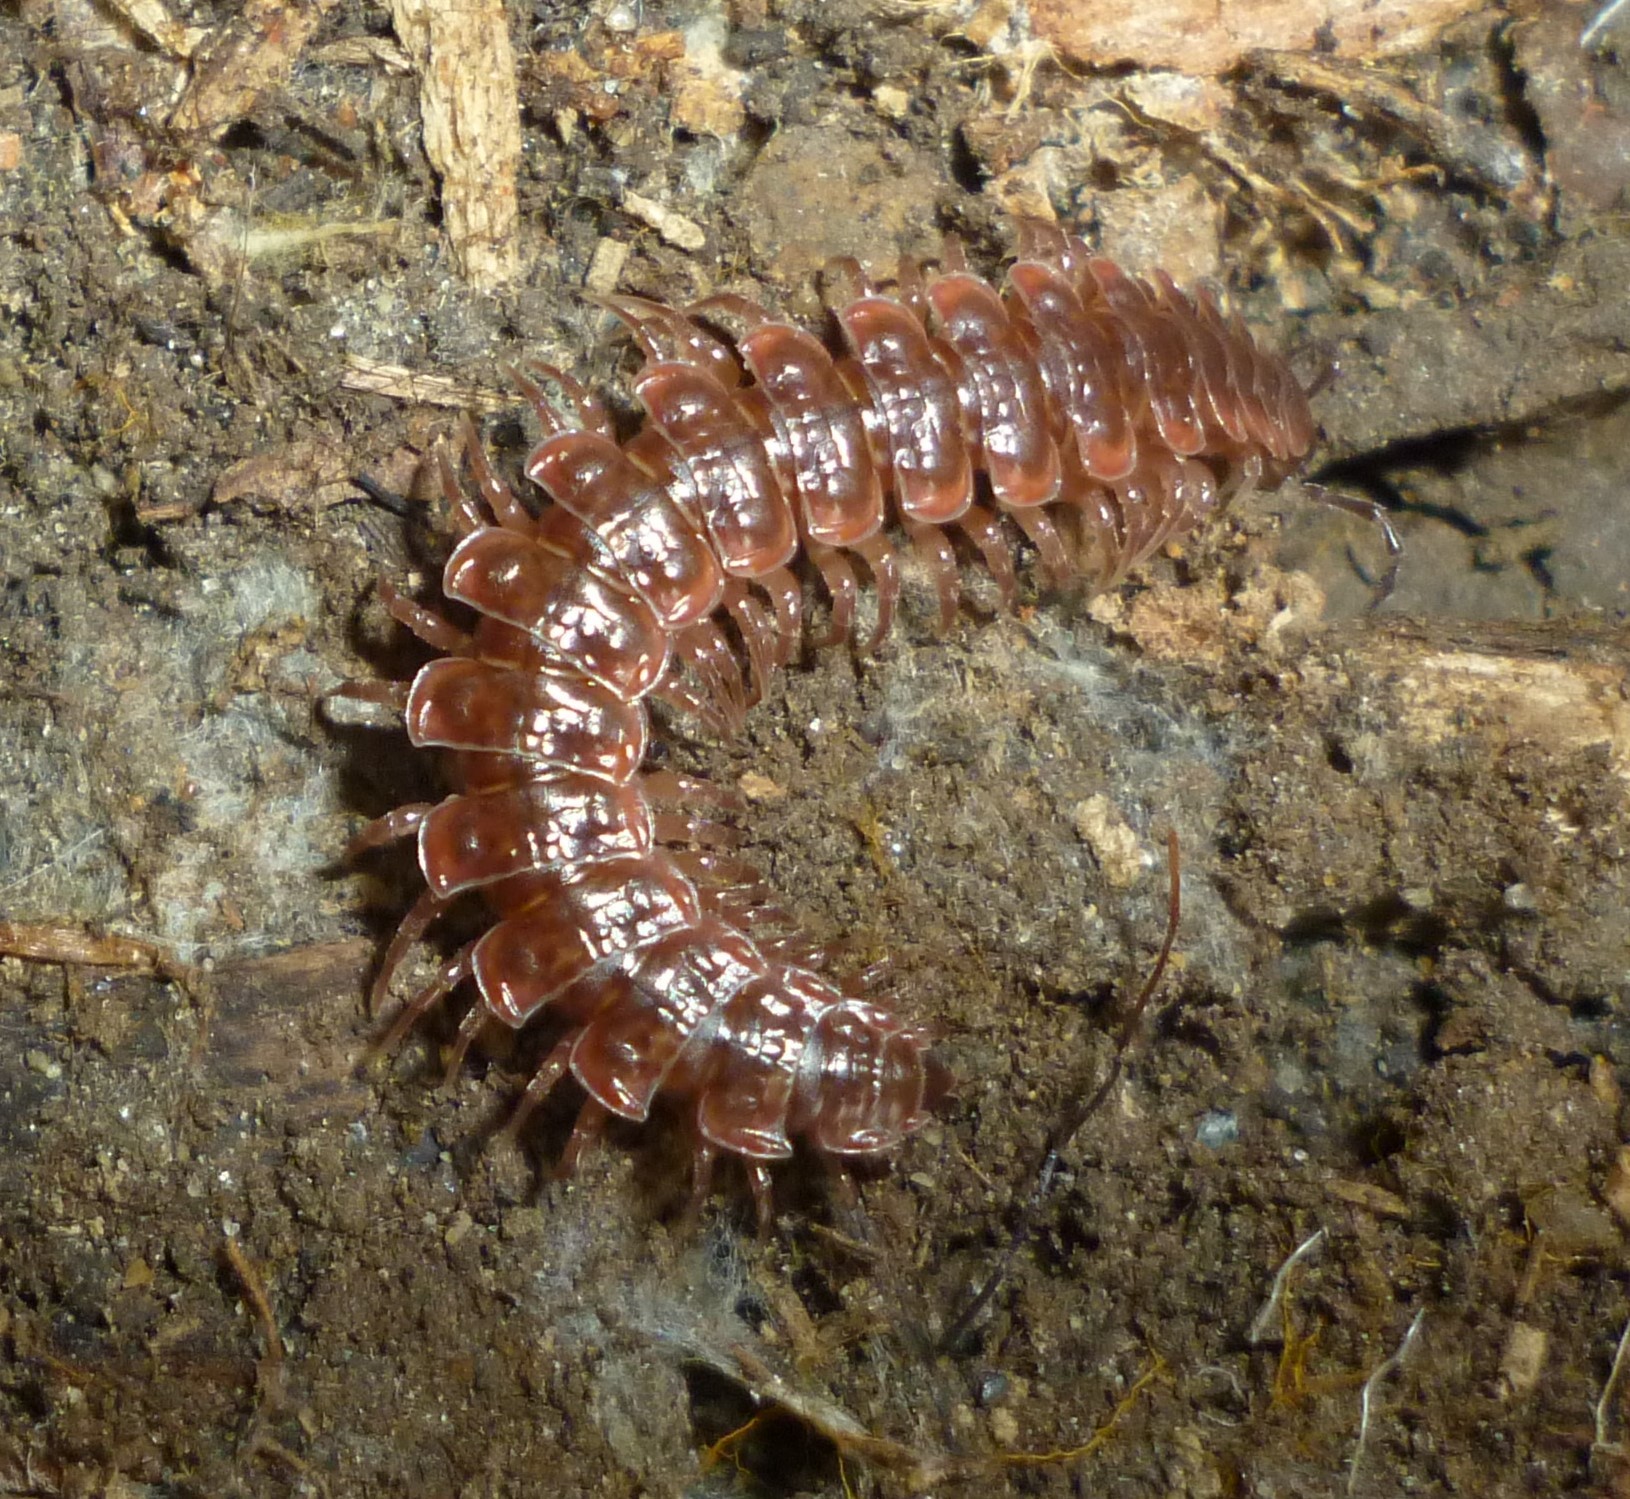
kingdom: Animalia
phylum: Arthropoda
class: Diplopoda
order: Polydesmida
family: Polydesmidae
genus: Pseudopolydesmus
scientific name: Pseudopolydesmus serratus
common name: Common pink flat-back millipede
